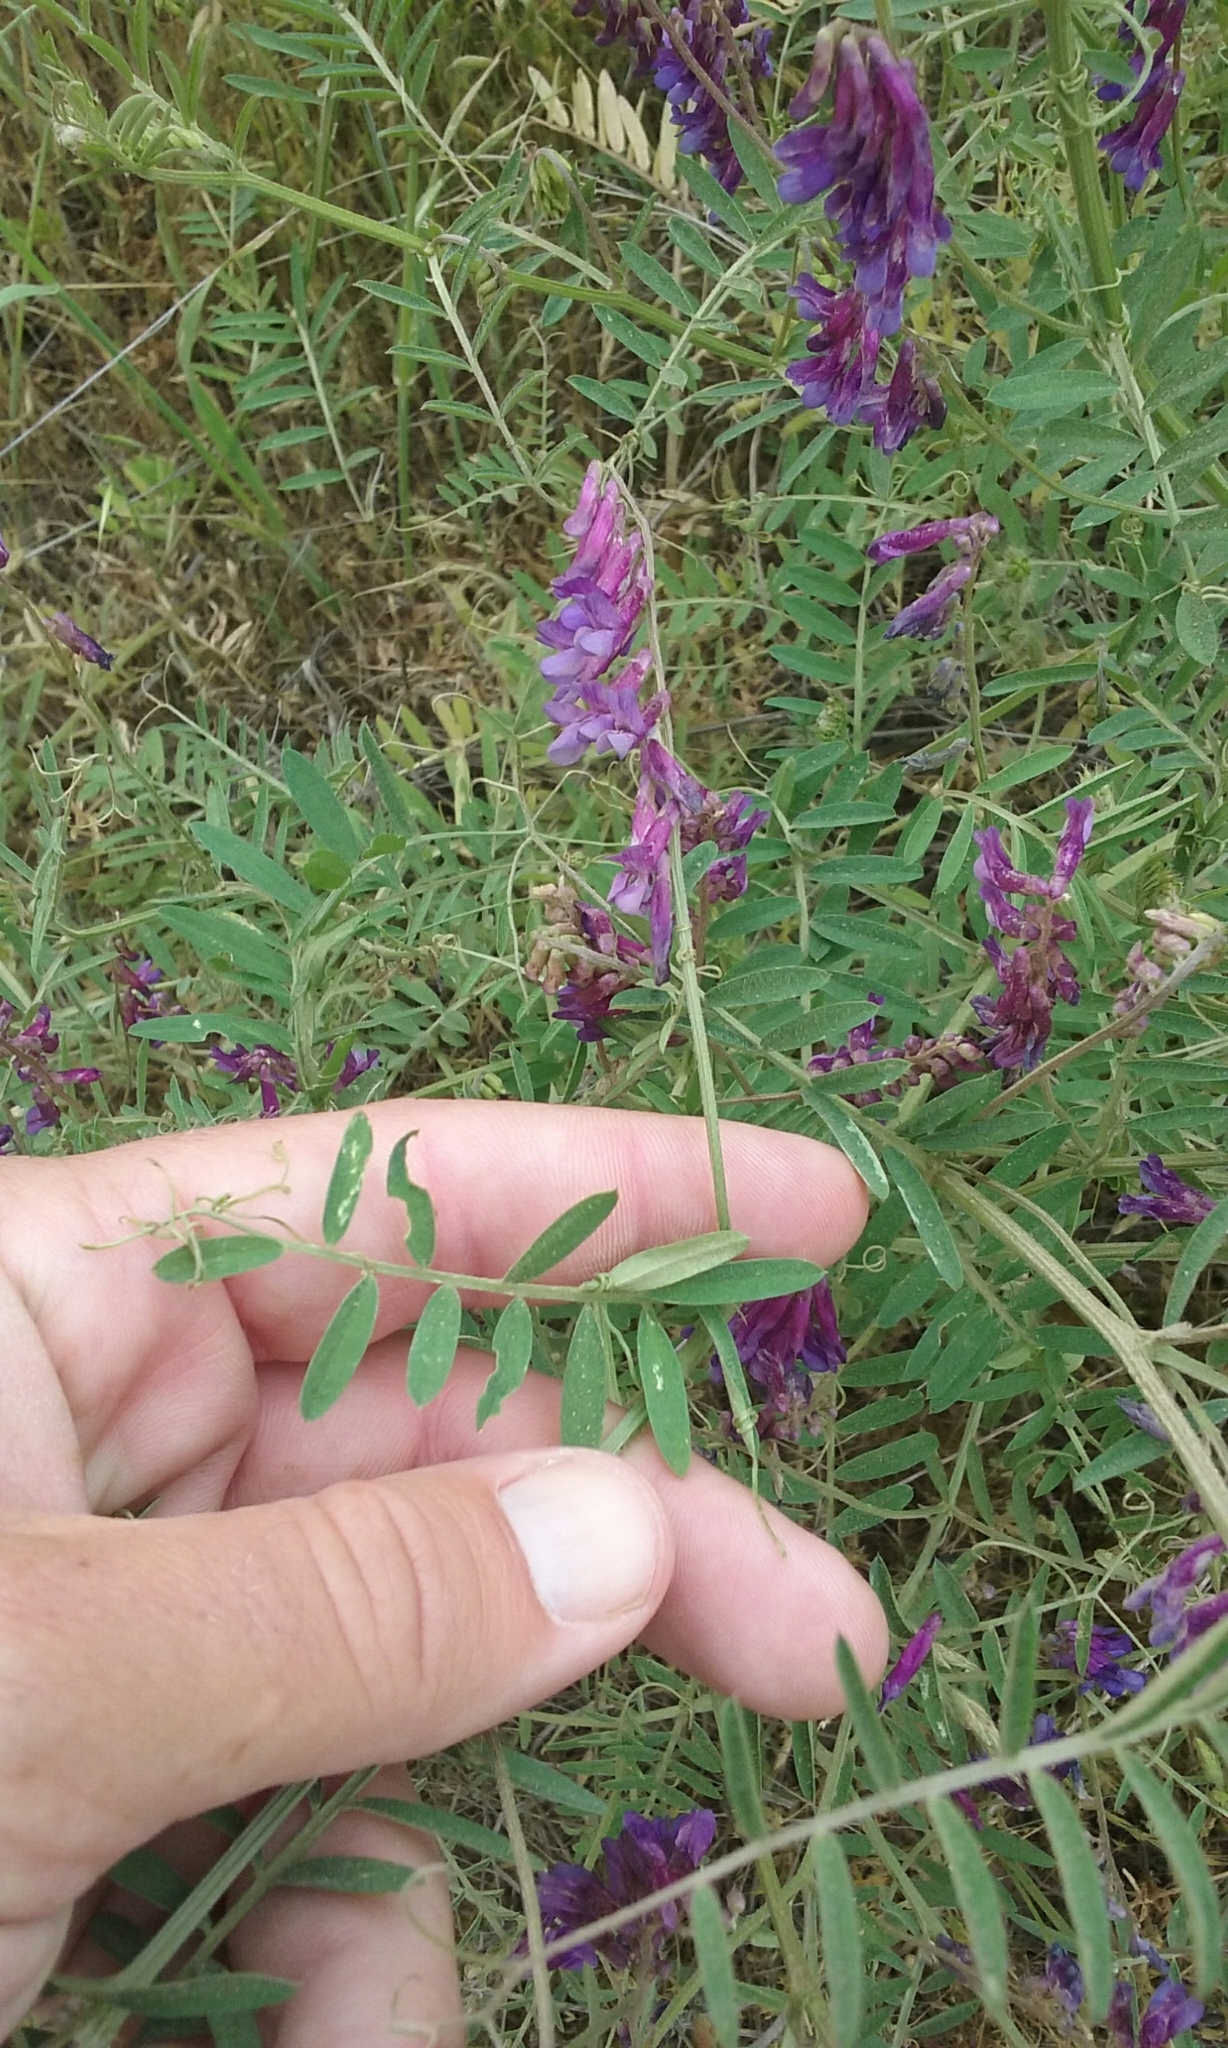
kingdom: Plantae
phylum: Tracheophyta
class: Magnoliopsida
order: Fabales
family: Fabaceae
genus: Vicia
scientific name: Vicia villosa
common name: Fodder vetch
